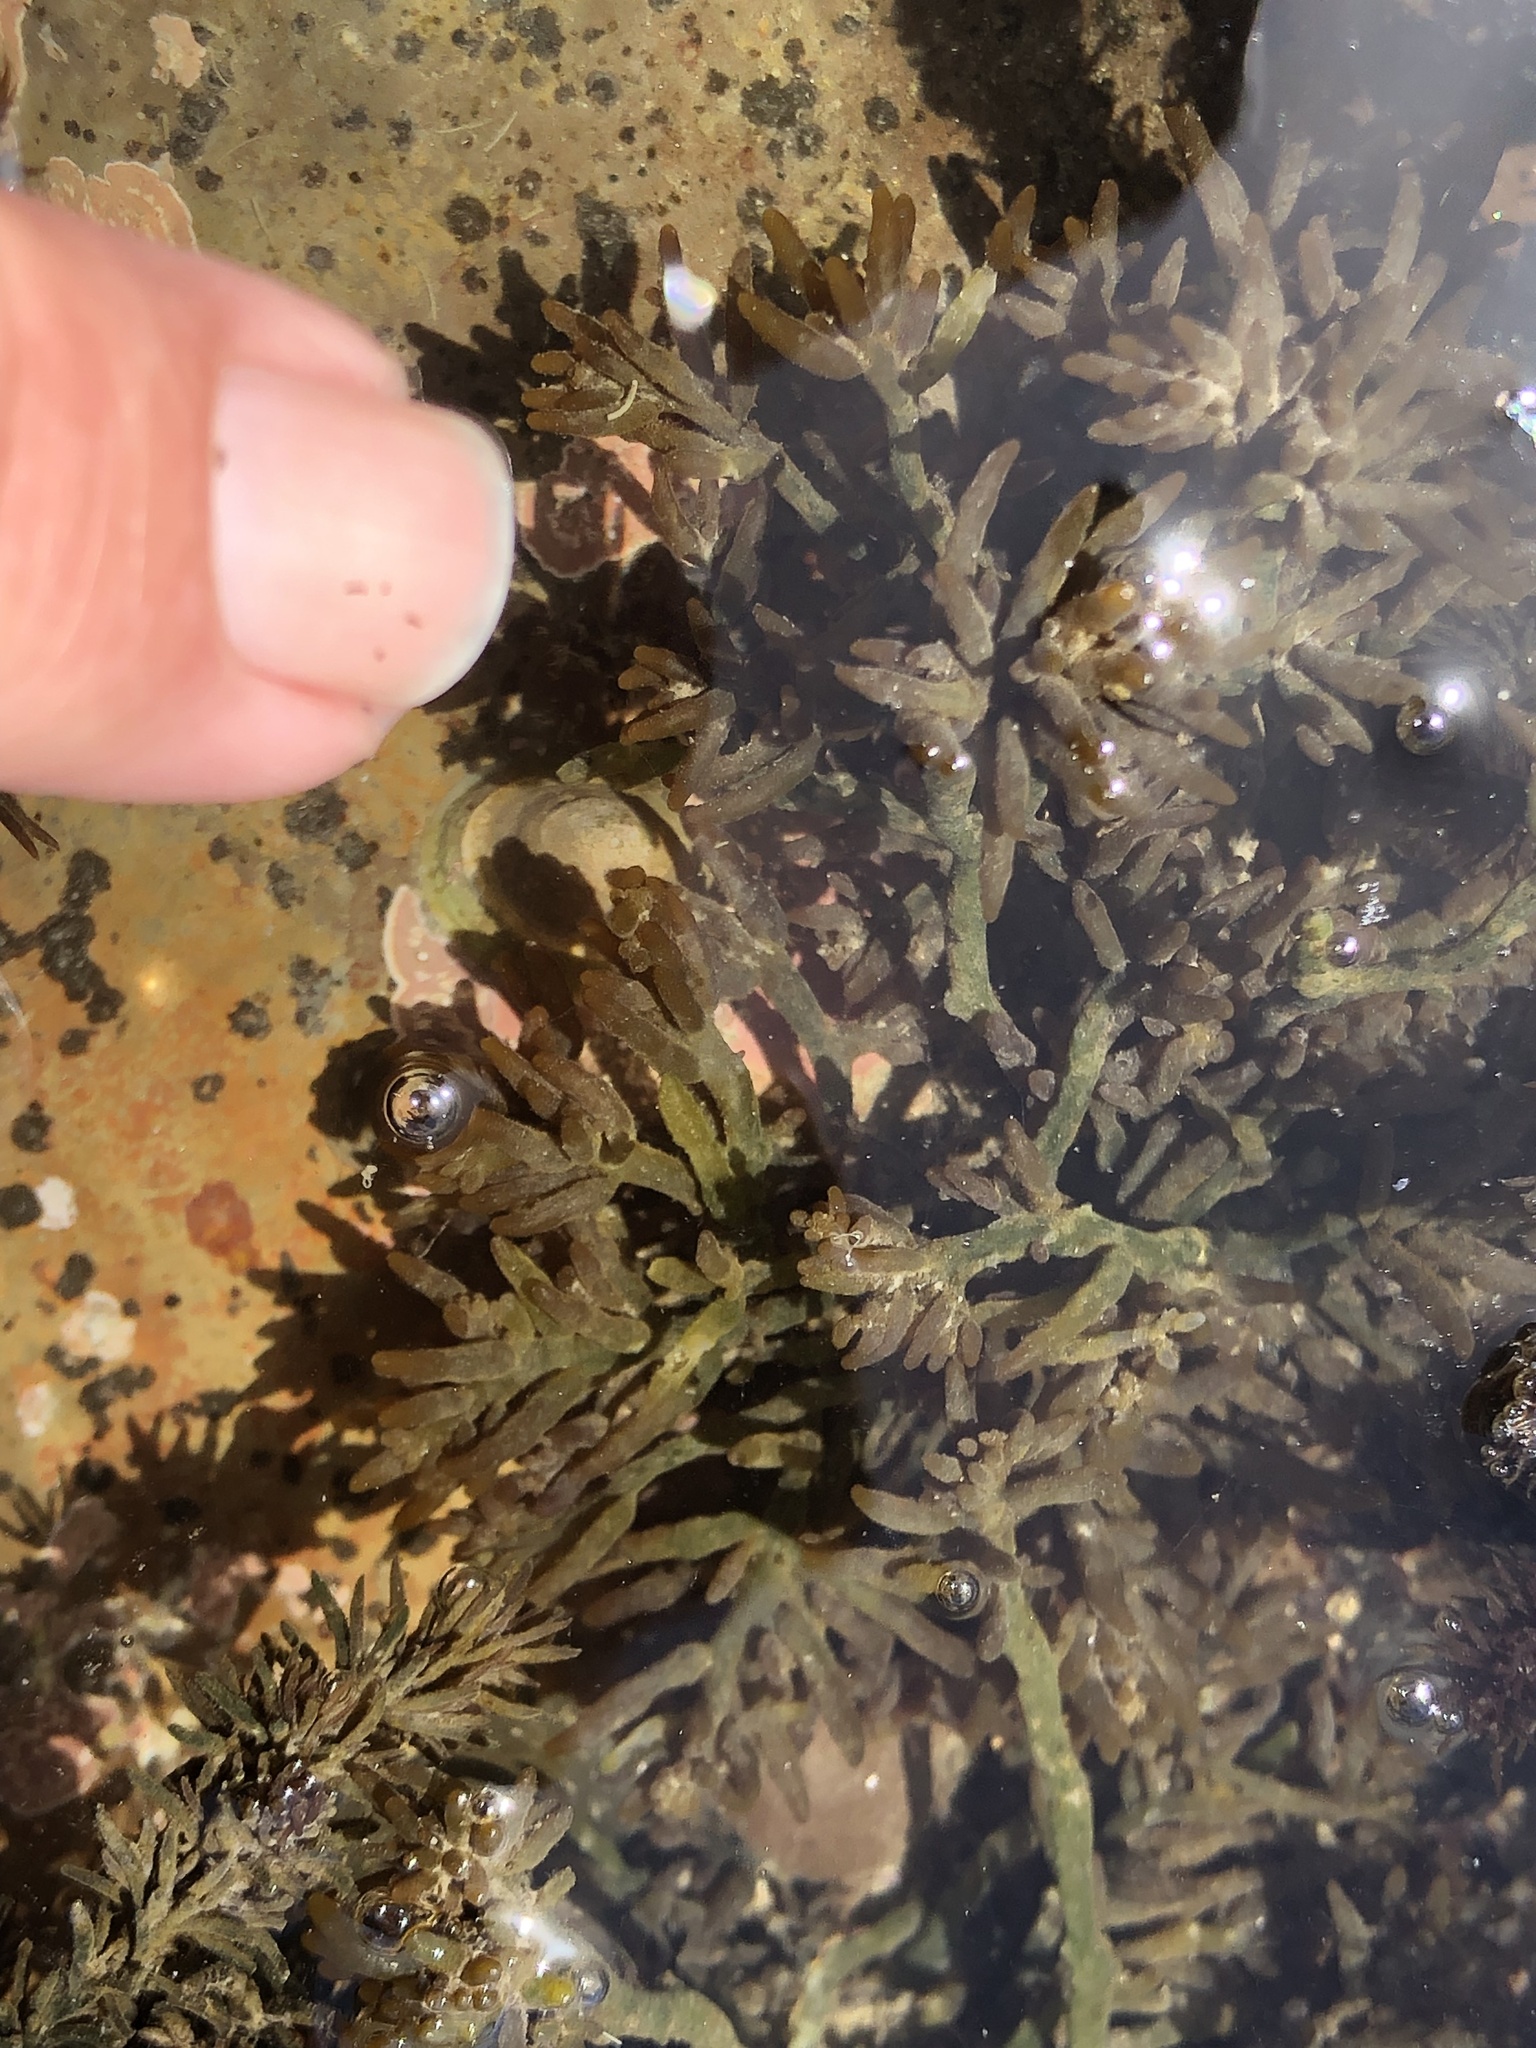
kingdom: Plantae
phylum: Rhodophyta
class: Florideophyceae
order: Rhodymeniales
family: Champiaceae
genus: Neogastroclonium
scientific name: Neogastroclonium subarticulatum
